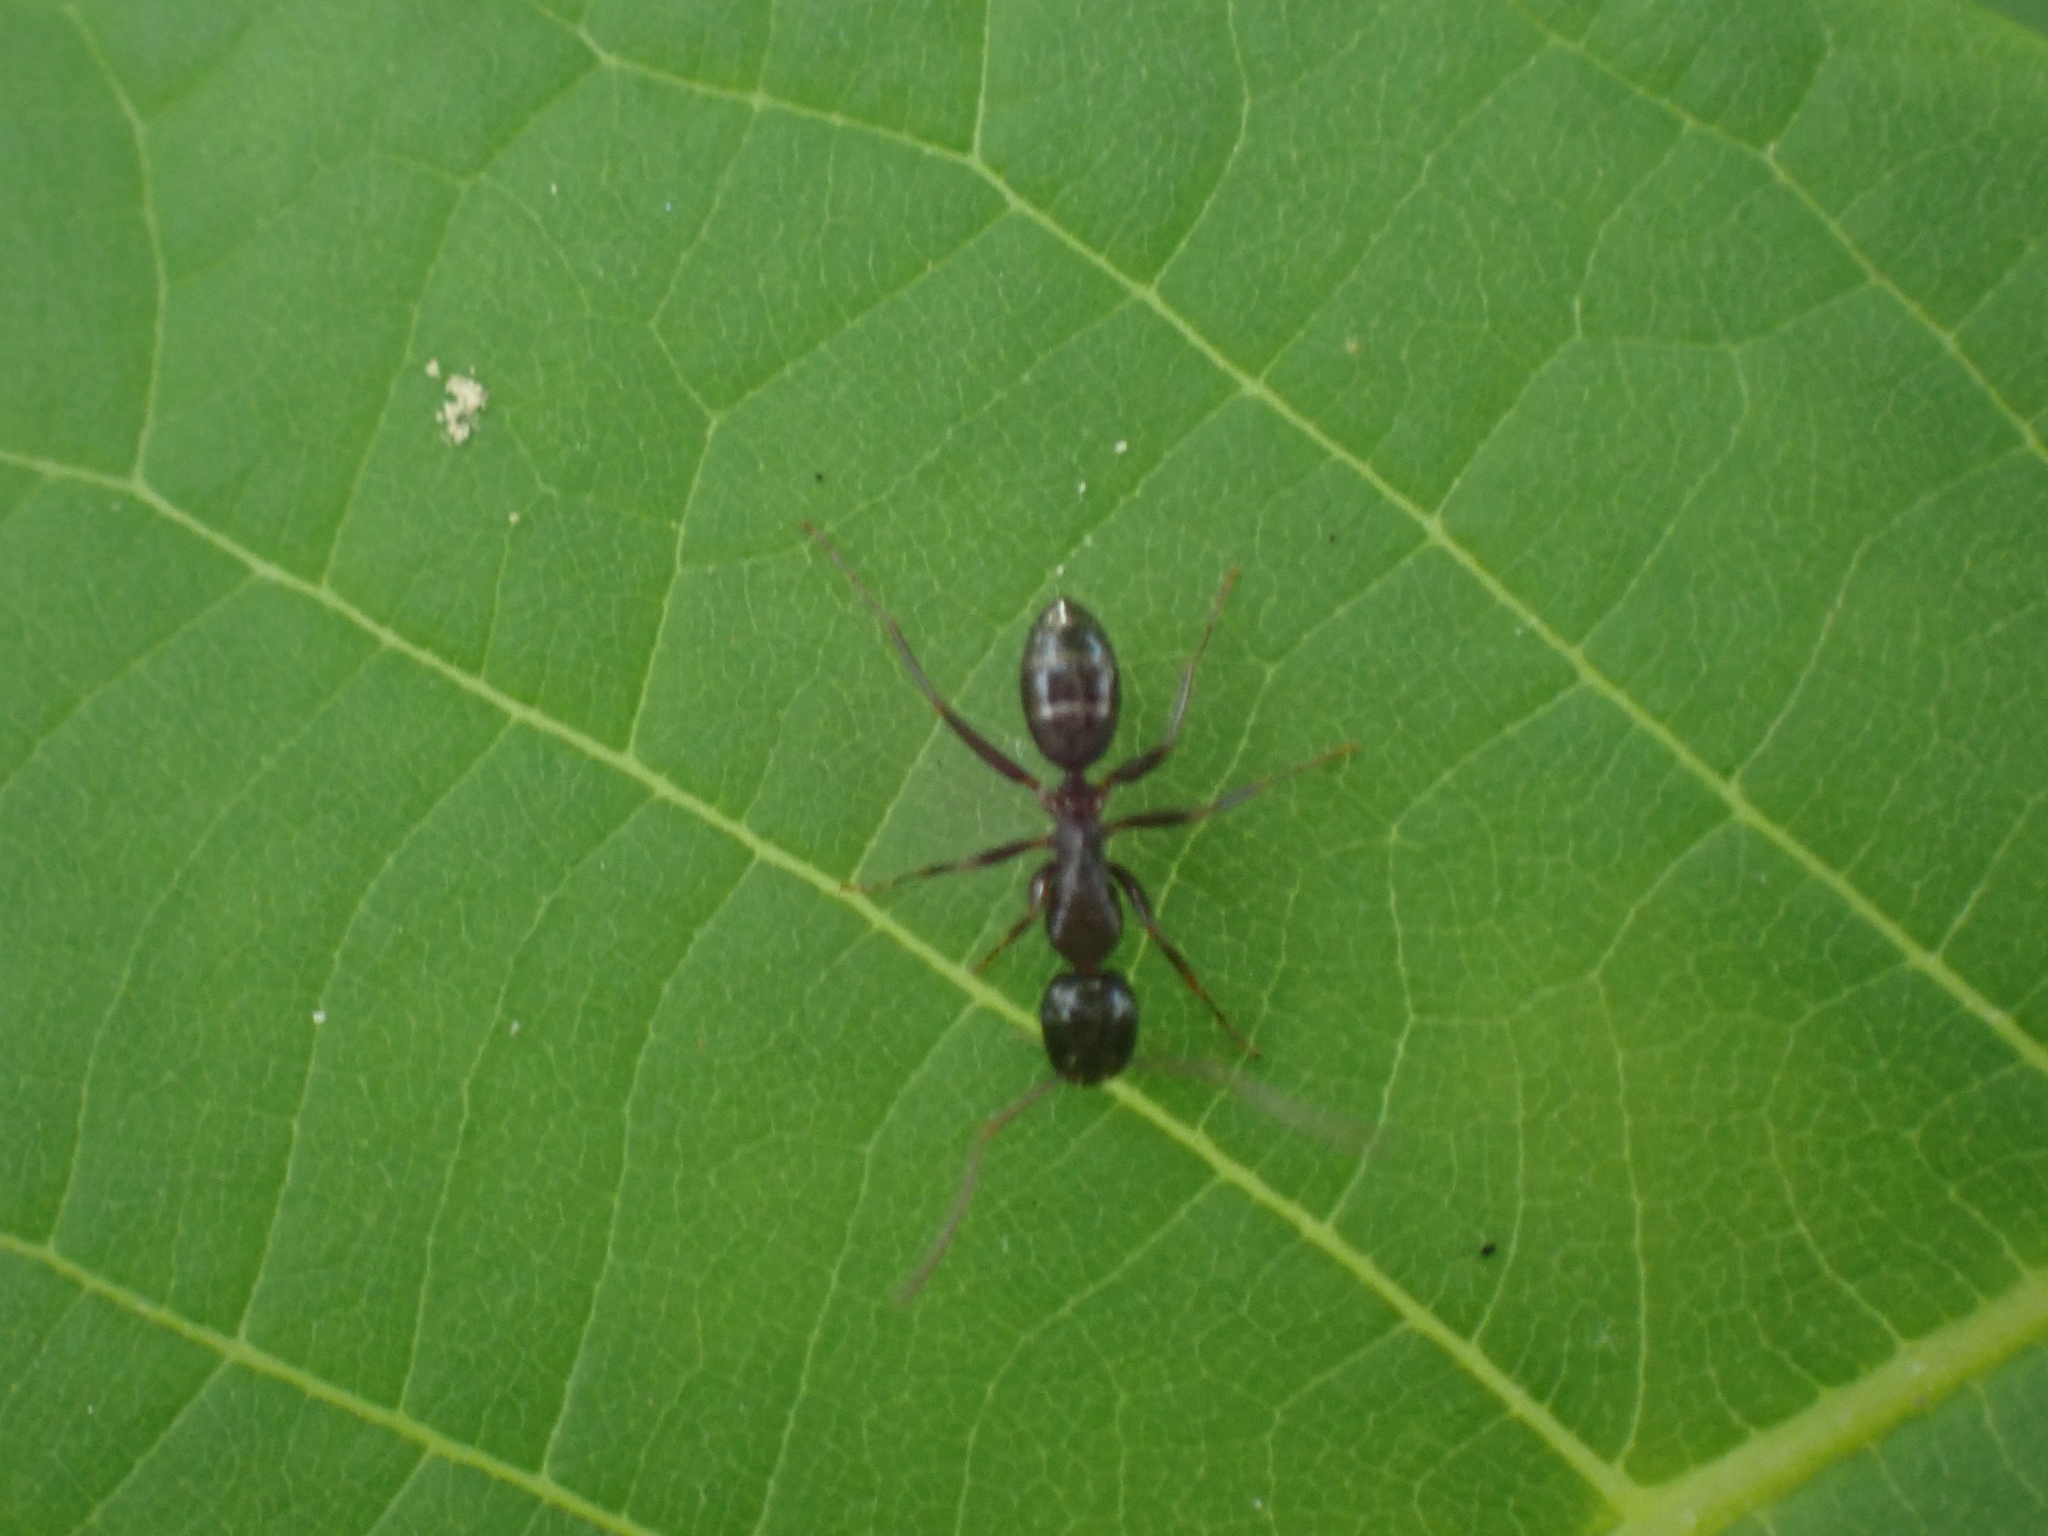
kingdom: Animalia
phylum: Arthropoda
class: Insecta
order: Hymenoptera
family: Formicidae
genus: Camponotus
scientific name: Camponotus nearcticus
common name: Smaller carpenter ant
